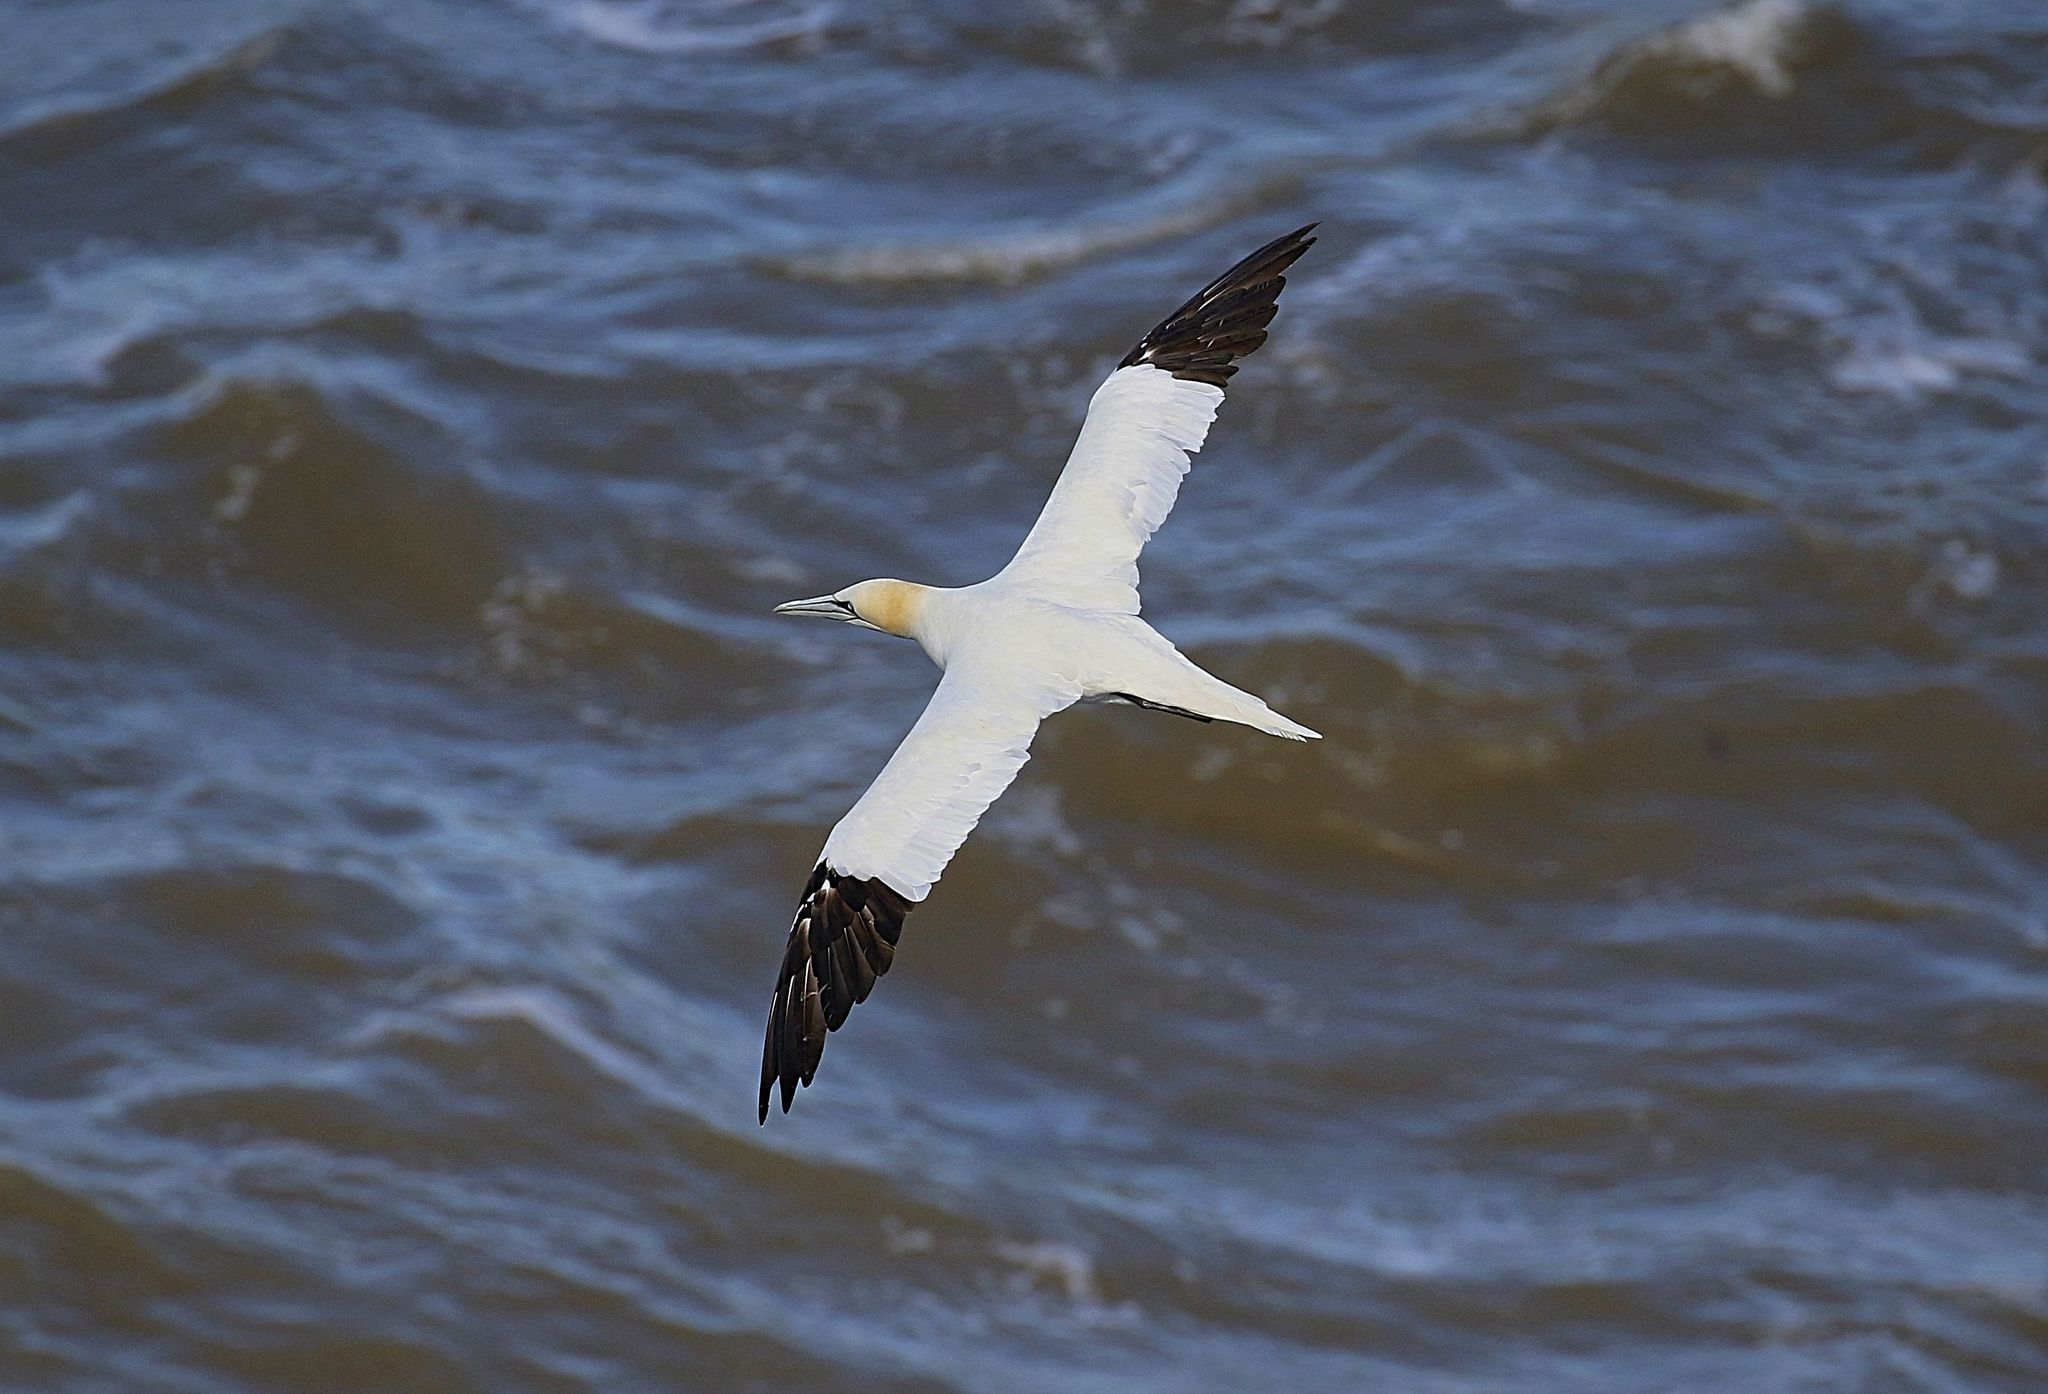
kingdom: Animalia
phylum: Chordata
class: Aves
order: Suliformes
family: Sulidae
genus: Morus
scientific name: Morus bassanus
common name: Northern gannet
